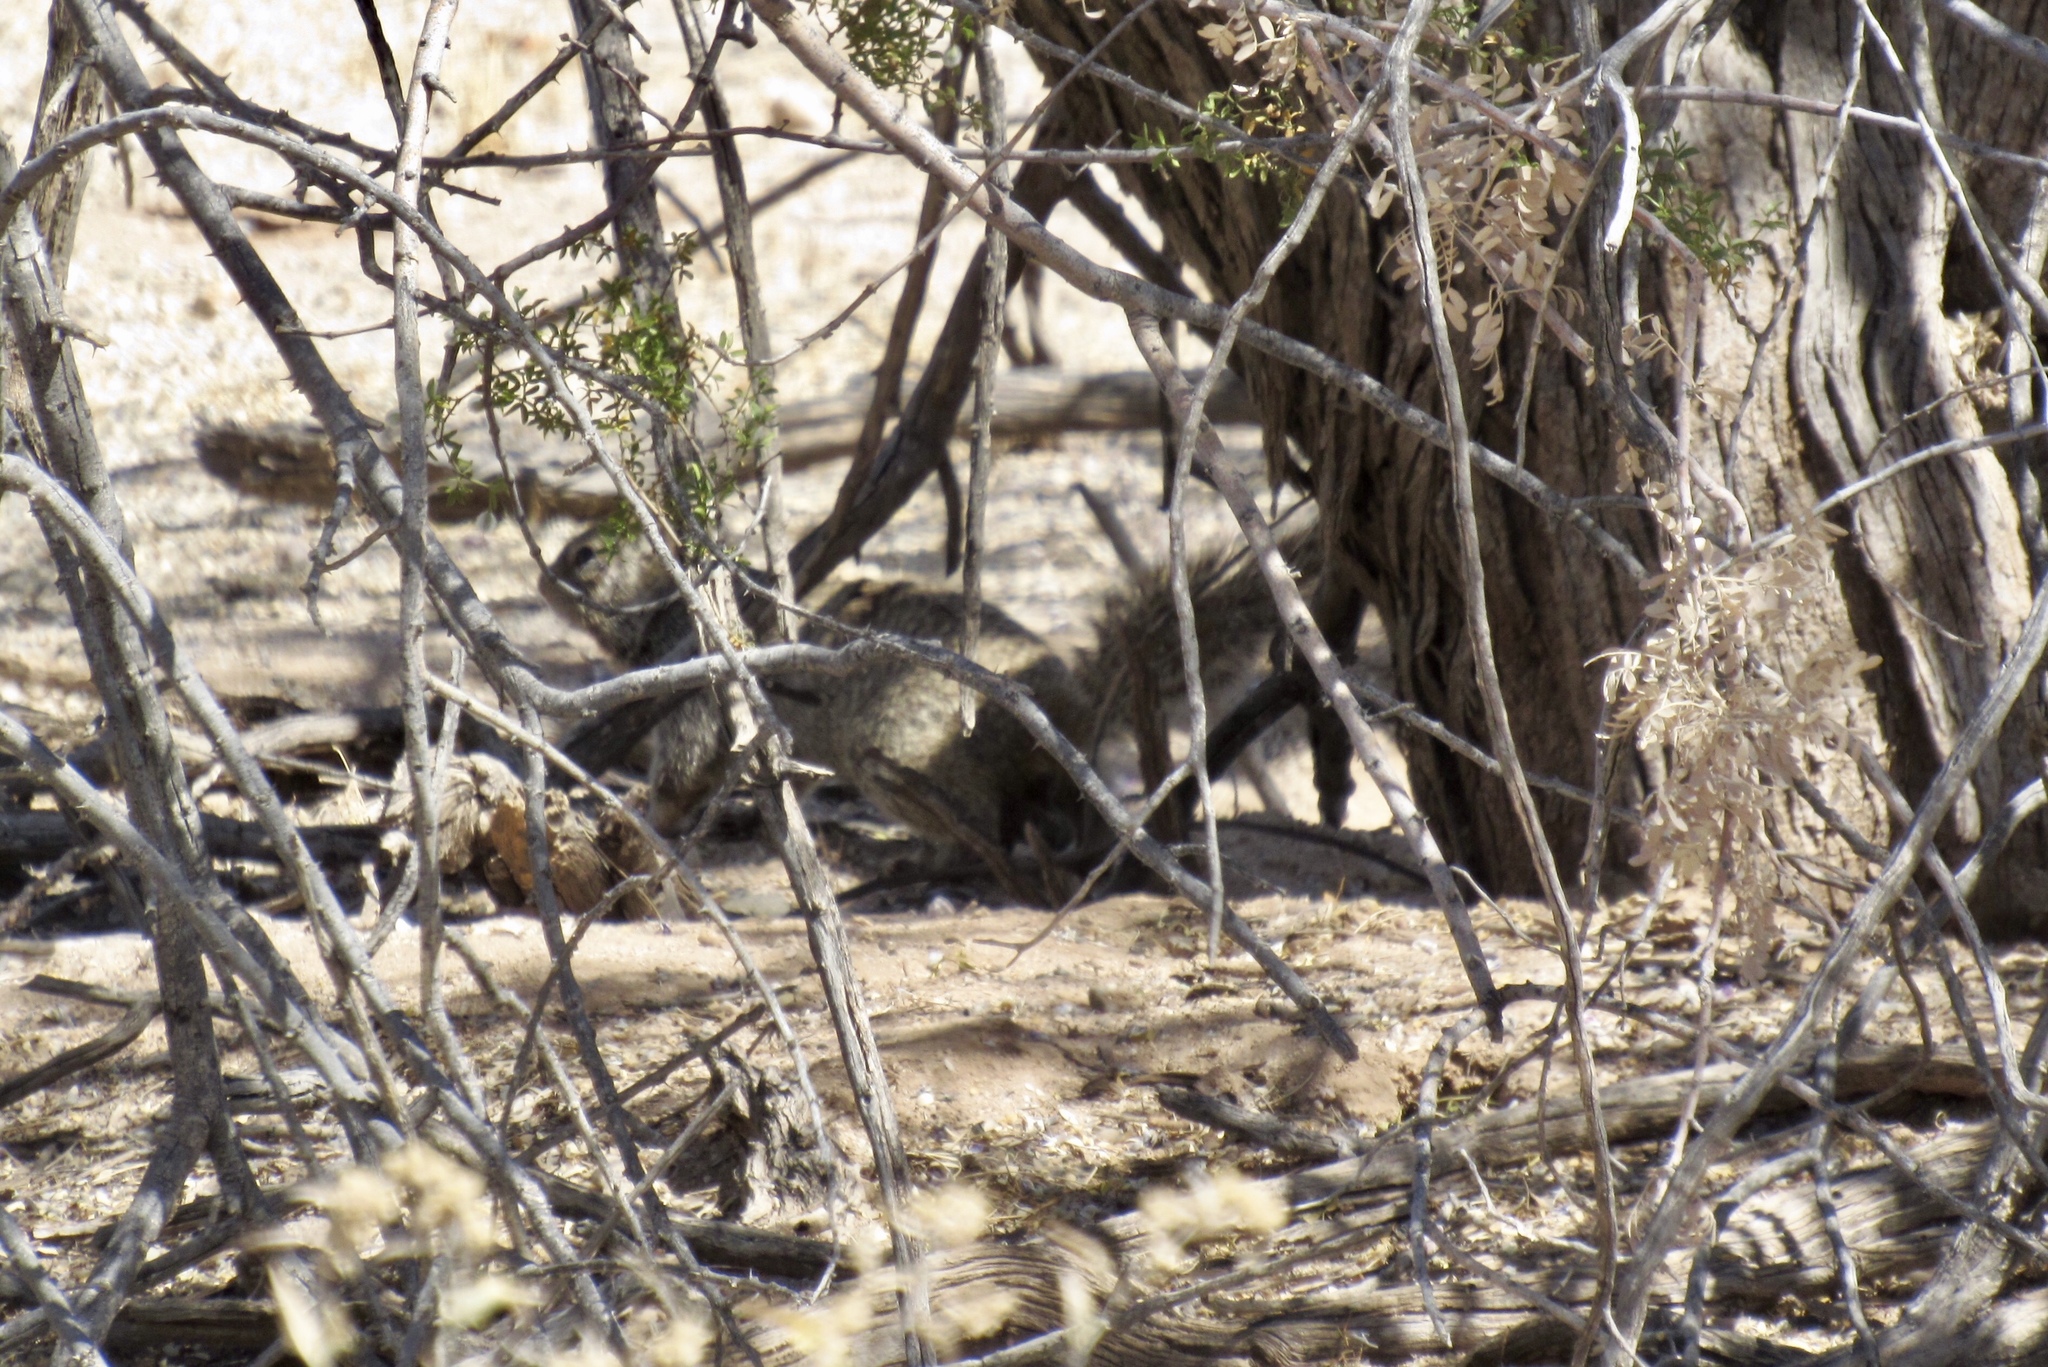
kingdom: Animalia
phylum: Chordata
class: Mammalia
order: Rodentia
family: Sciuridae
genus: Otospermophilus
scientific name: Otospermophilus variegatus
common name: Rock squirrel
